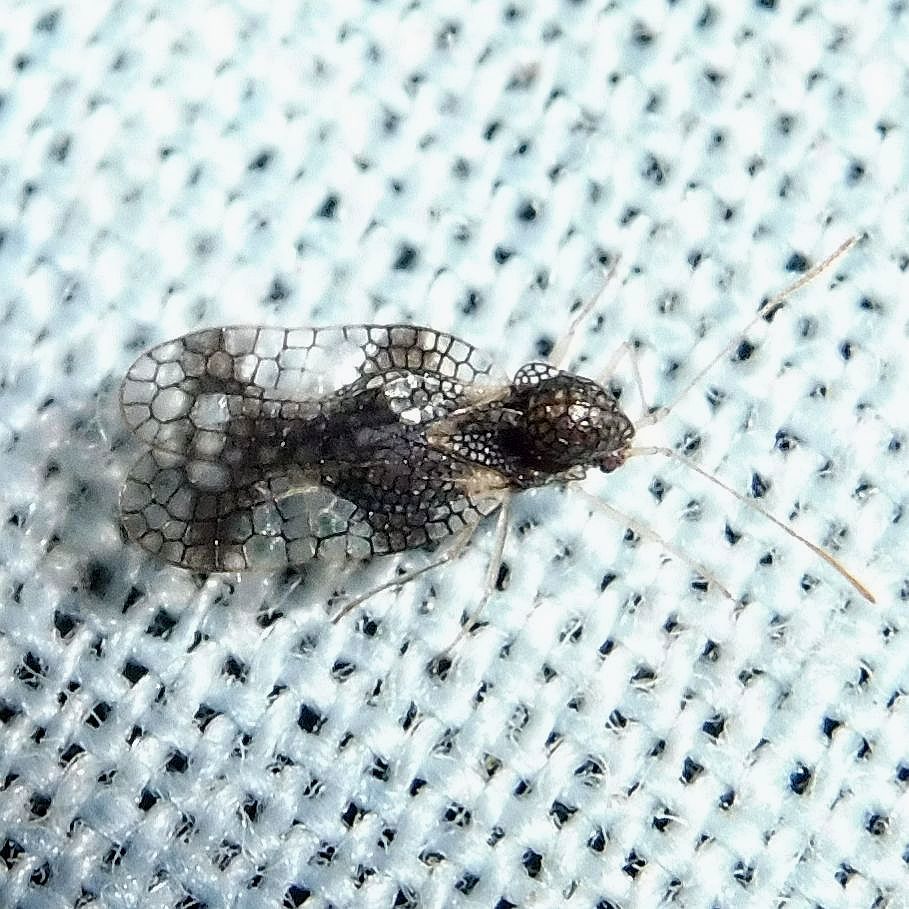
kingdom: Animalia
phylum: Arthropoda
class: Insecta
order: Hemiptera
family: Tingidae
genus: Stephanitis
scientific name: Stephanitis takeyai
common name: Andromeda lacebug
